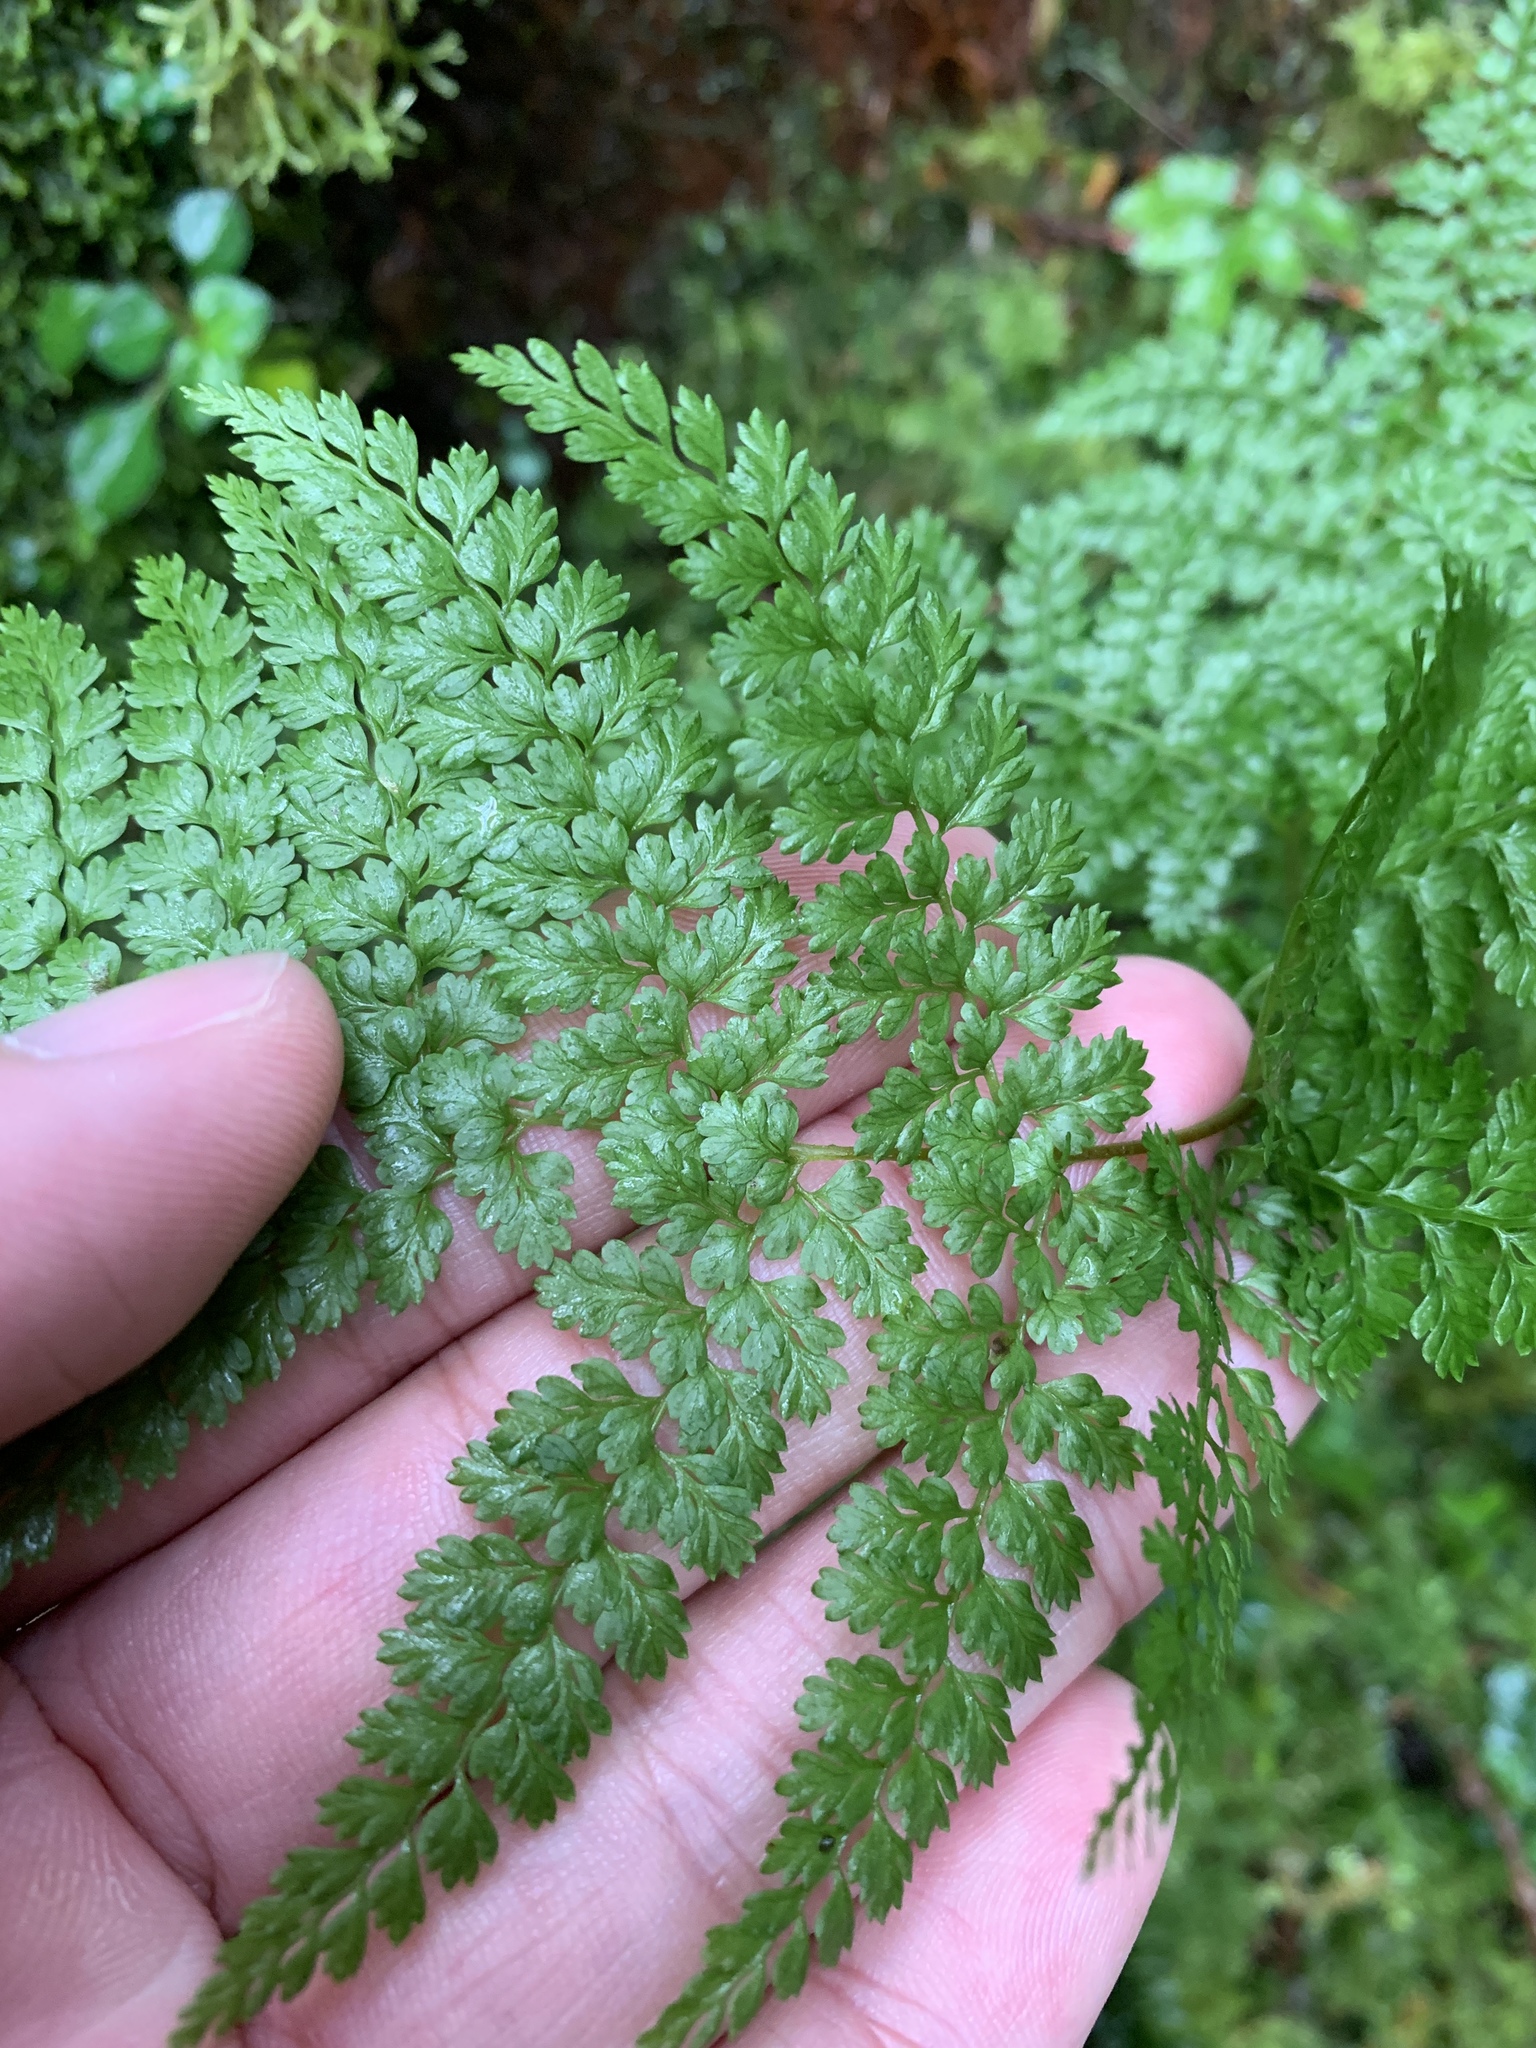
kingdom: Plantae
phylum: Tracheophyta
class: Polypodiopsida
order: Polypodiales
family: Dennstaedtiaceae
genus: Monachosorum
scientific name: Monachosorum henryi
